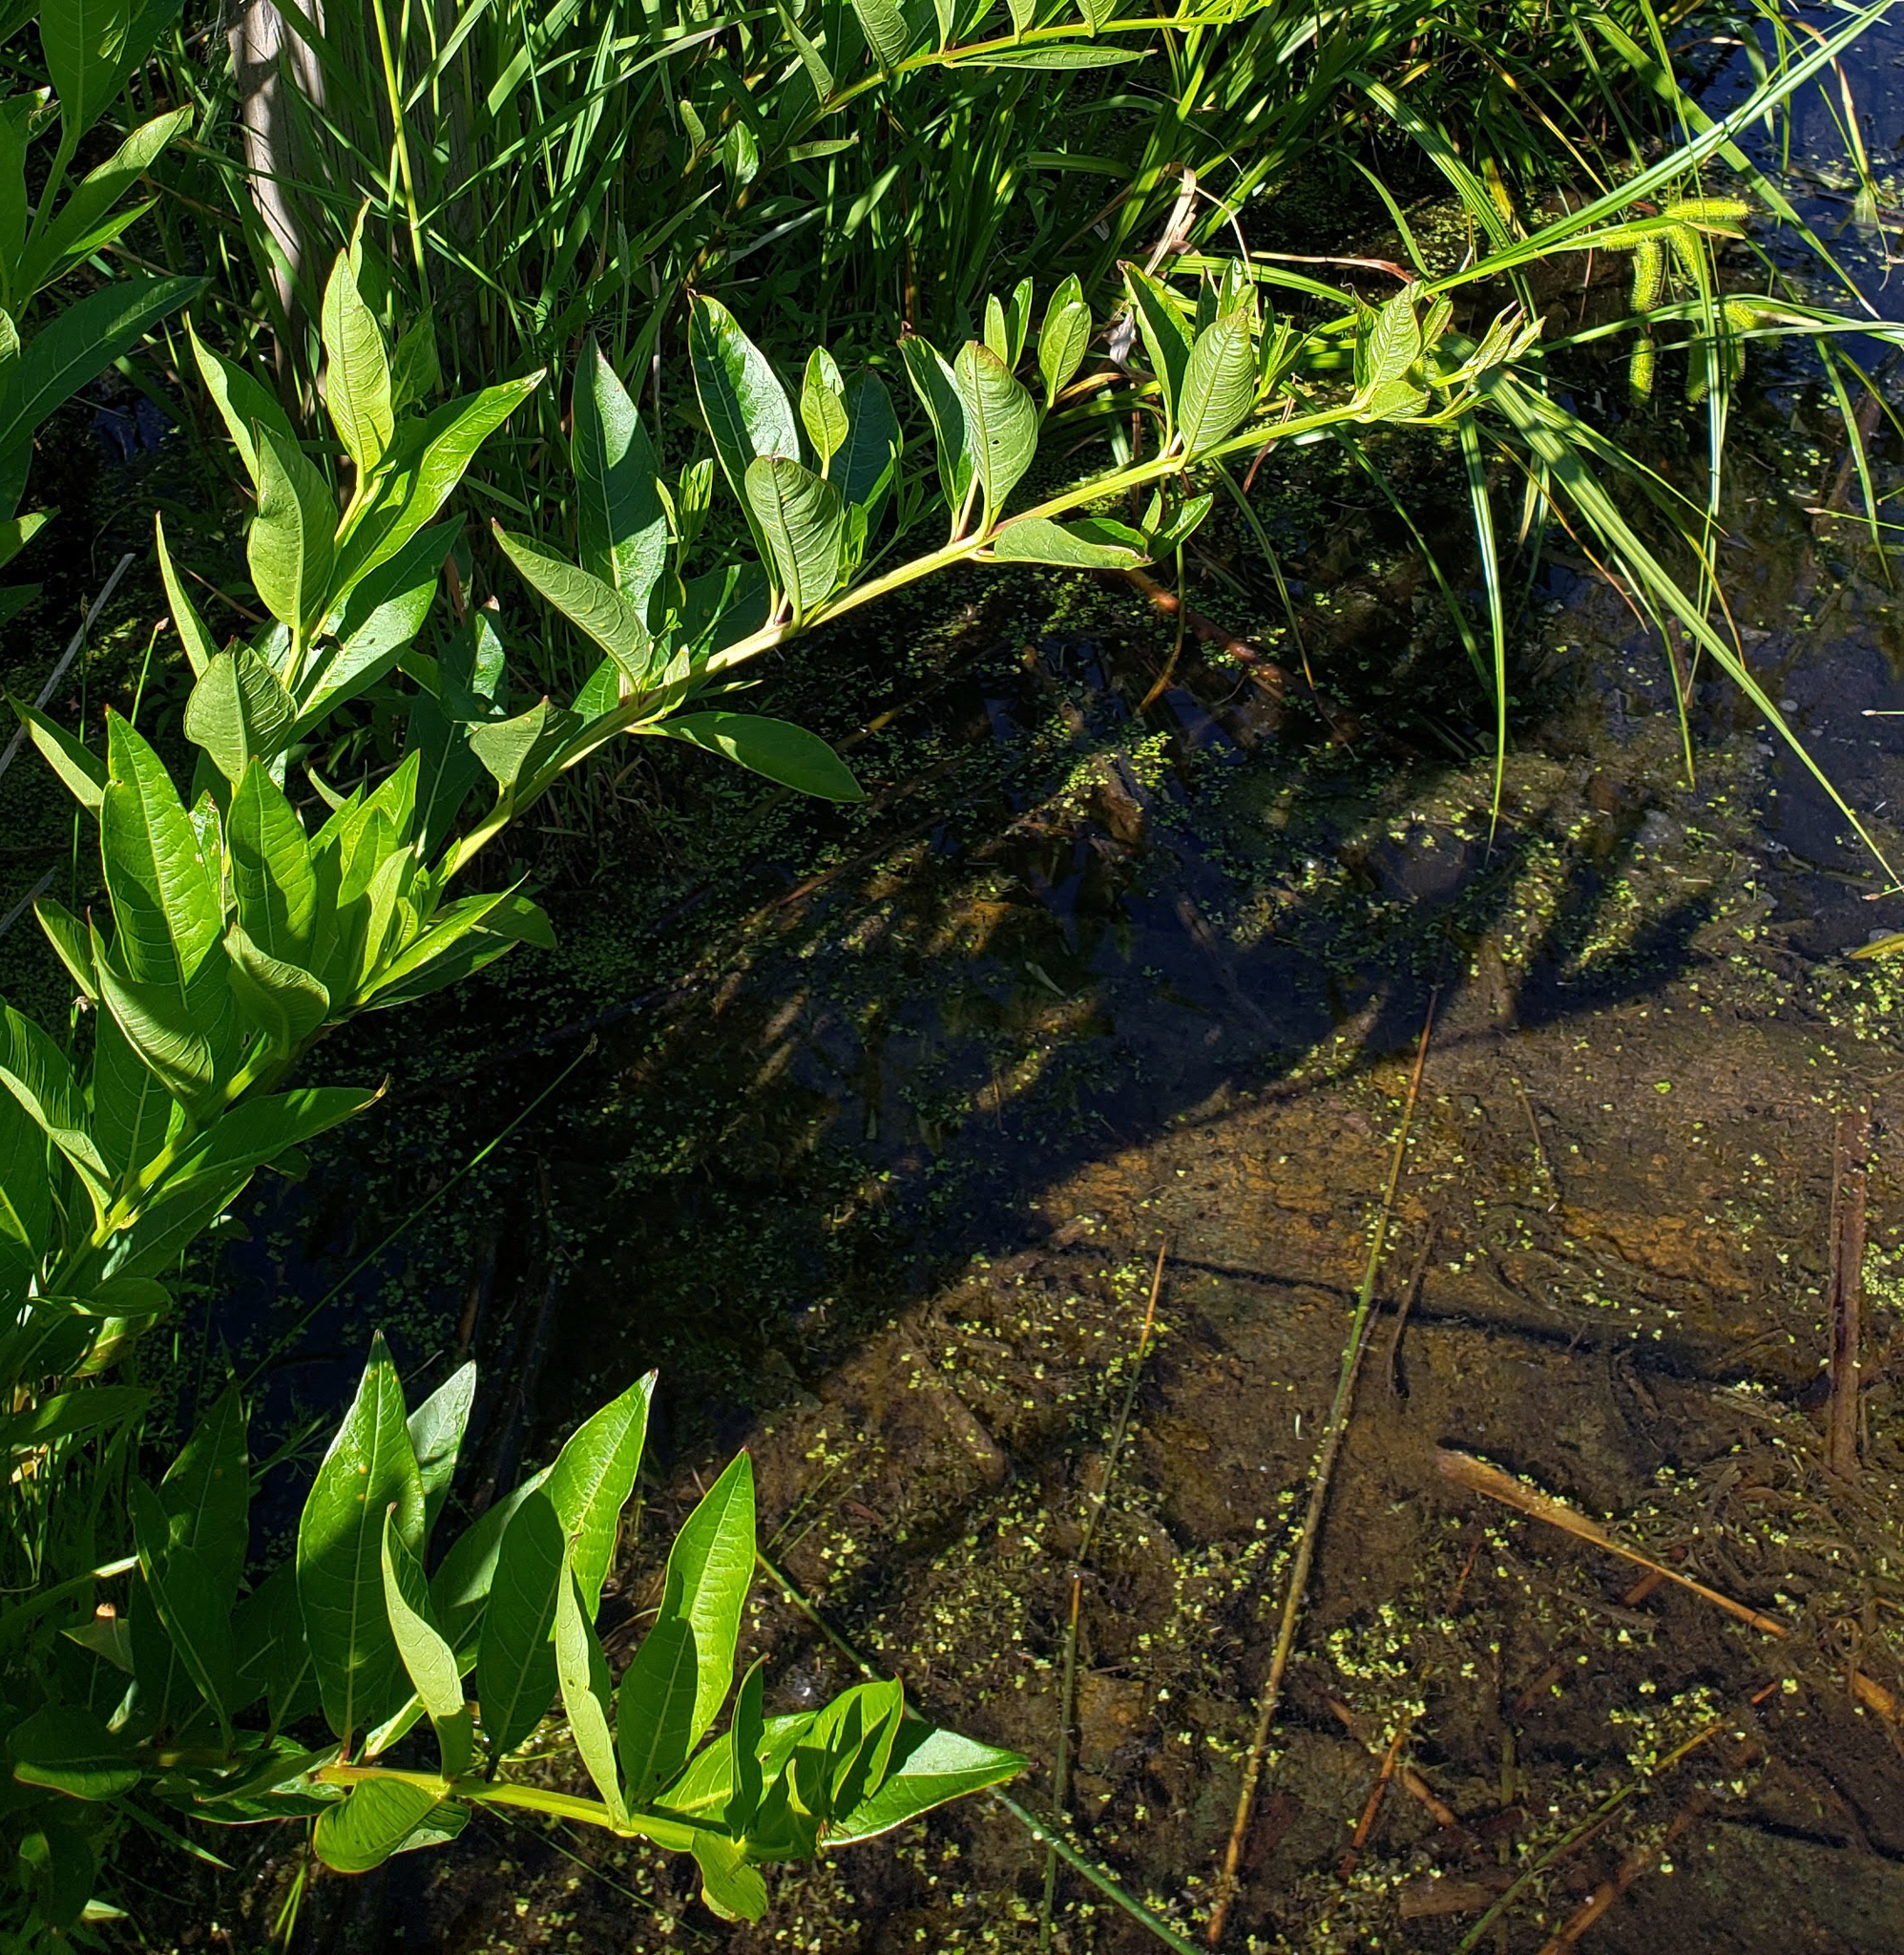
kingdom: Plantae
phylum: Tracheophyta
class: Magnoliopsida
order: Myrtales
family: Lythraceae
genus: Decodon
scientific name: Decodon verticillatus
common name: Hairy swamp loosestrife
